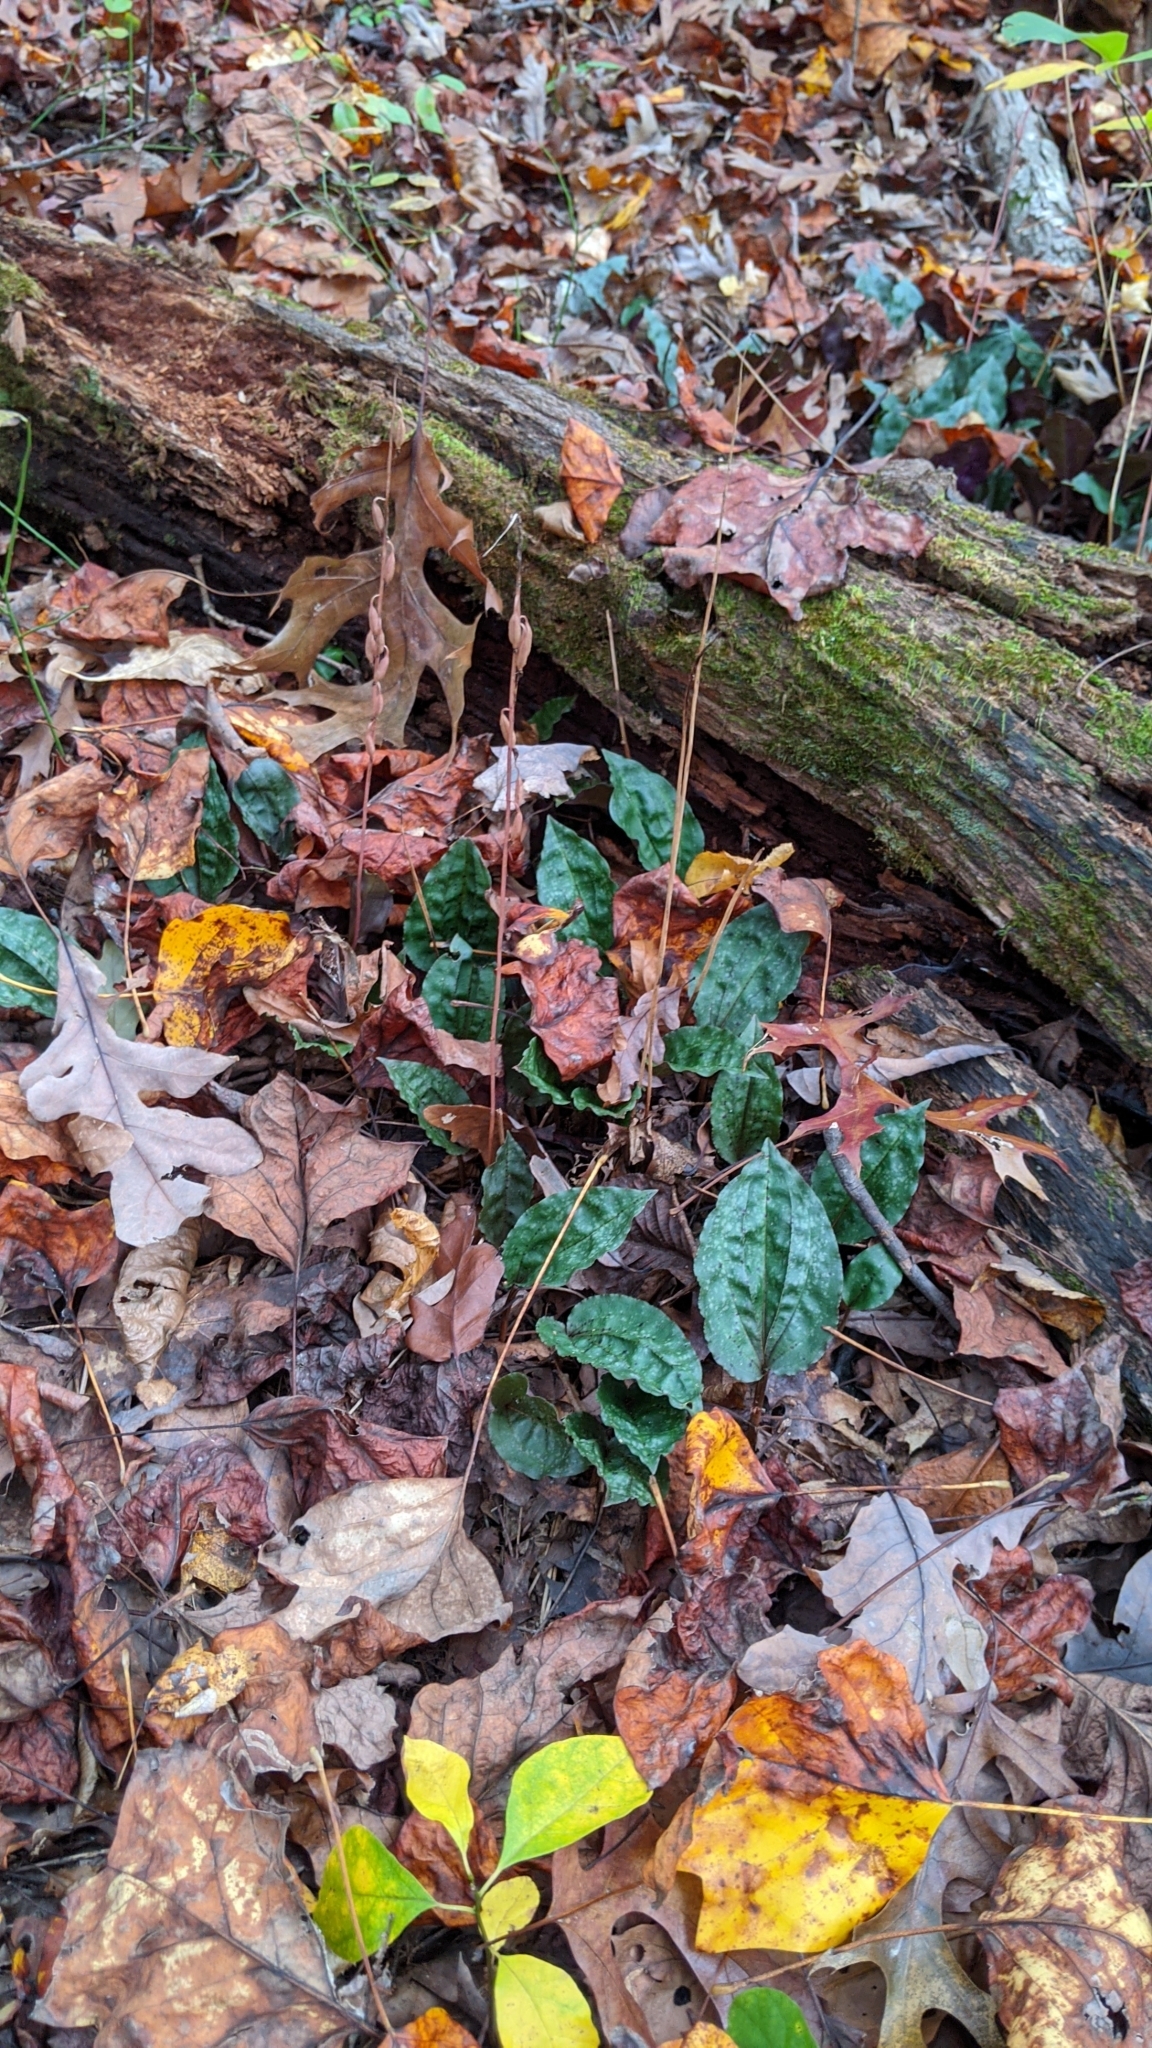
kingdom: Plantae
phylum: Tracheophyta
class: Liliopsida
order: Asparagales
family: Orchidaceae
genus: Tipularia
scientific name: Tipularia discolor
